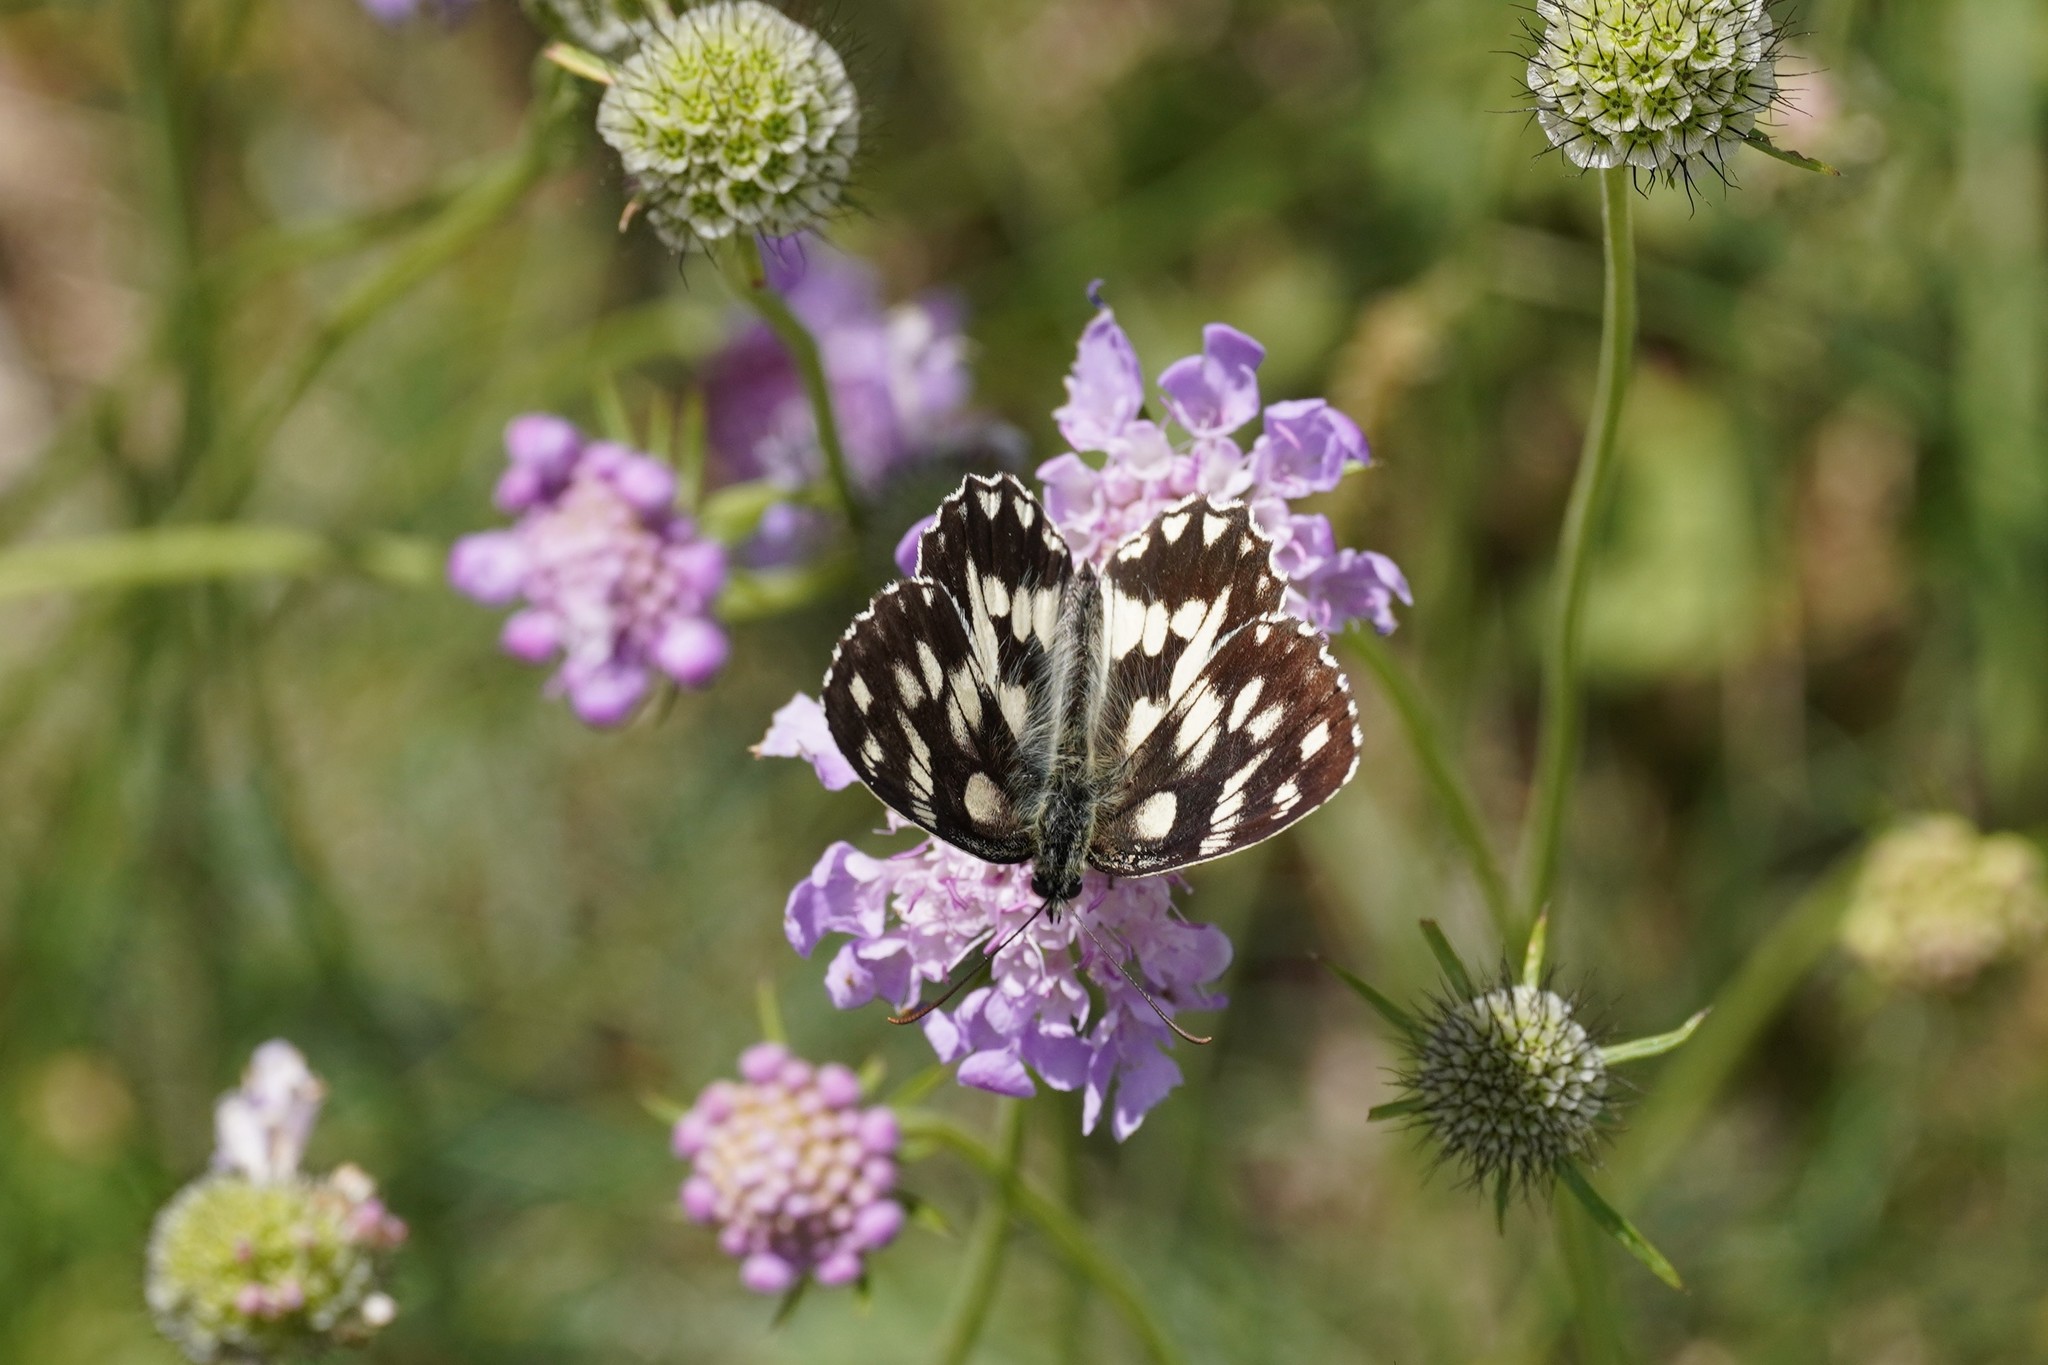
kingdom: Animalia
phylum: Arthropoda
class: Insecta
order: Lepidoptera
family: Nymphalidae
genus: Melanargia
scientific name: Melanargia galathea
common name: Marbled white
